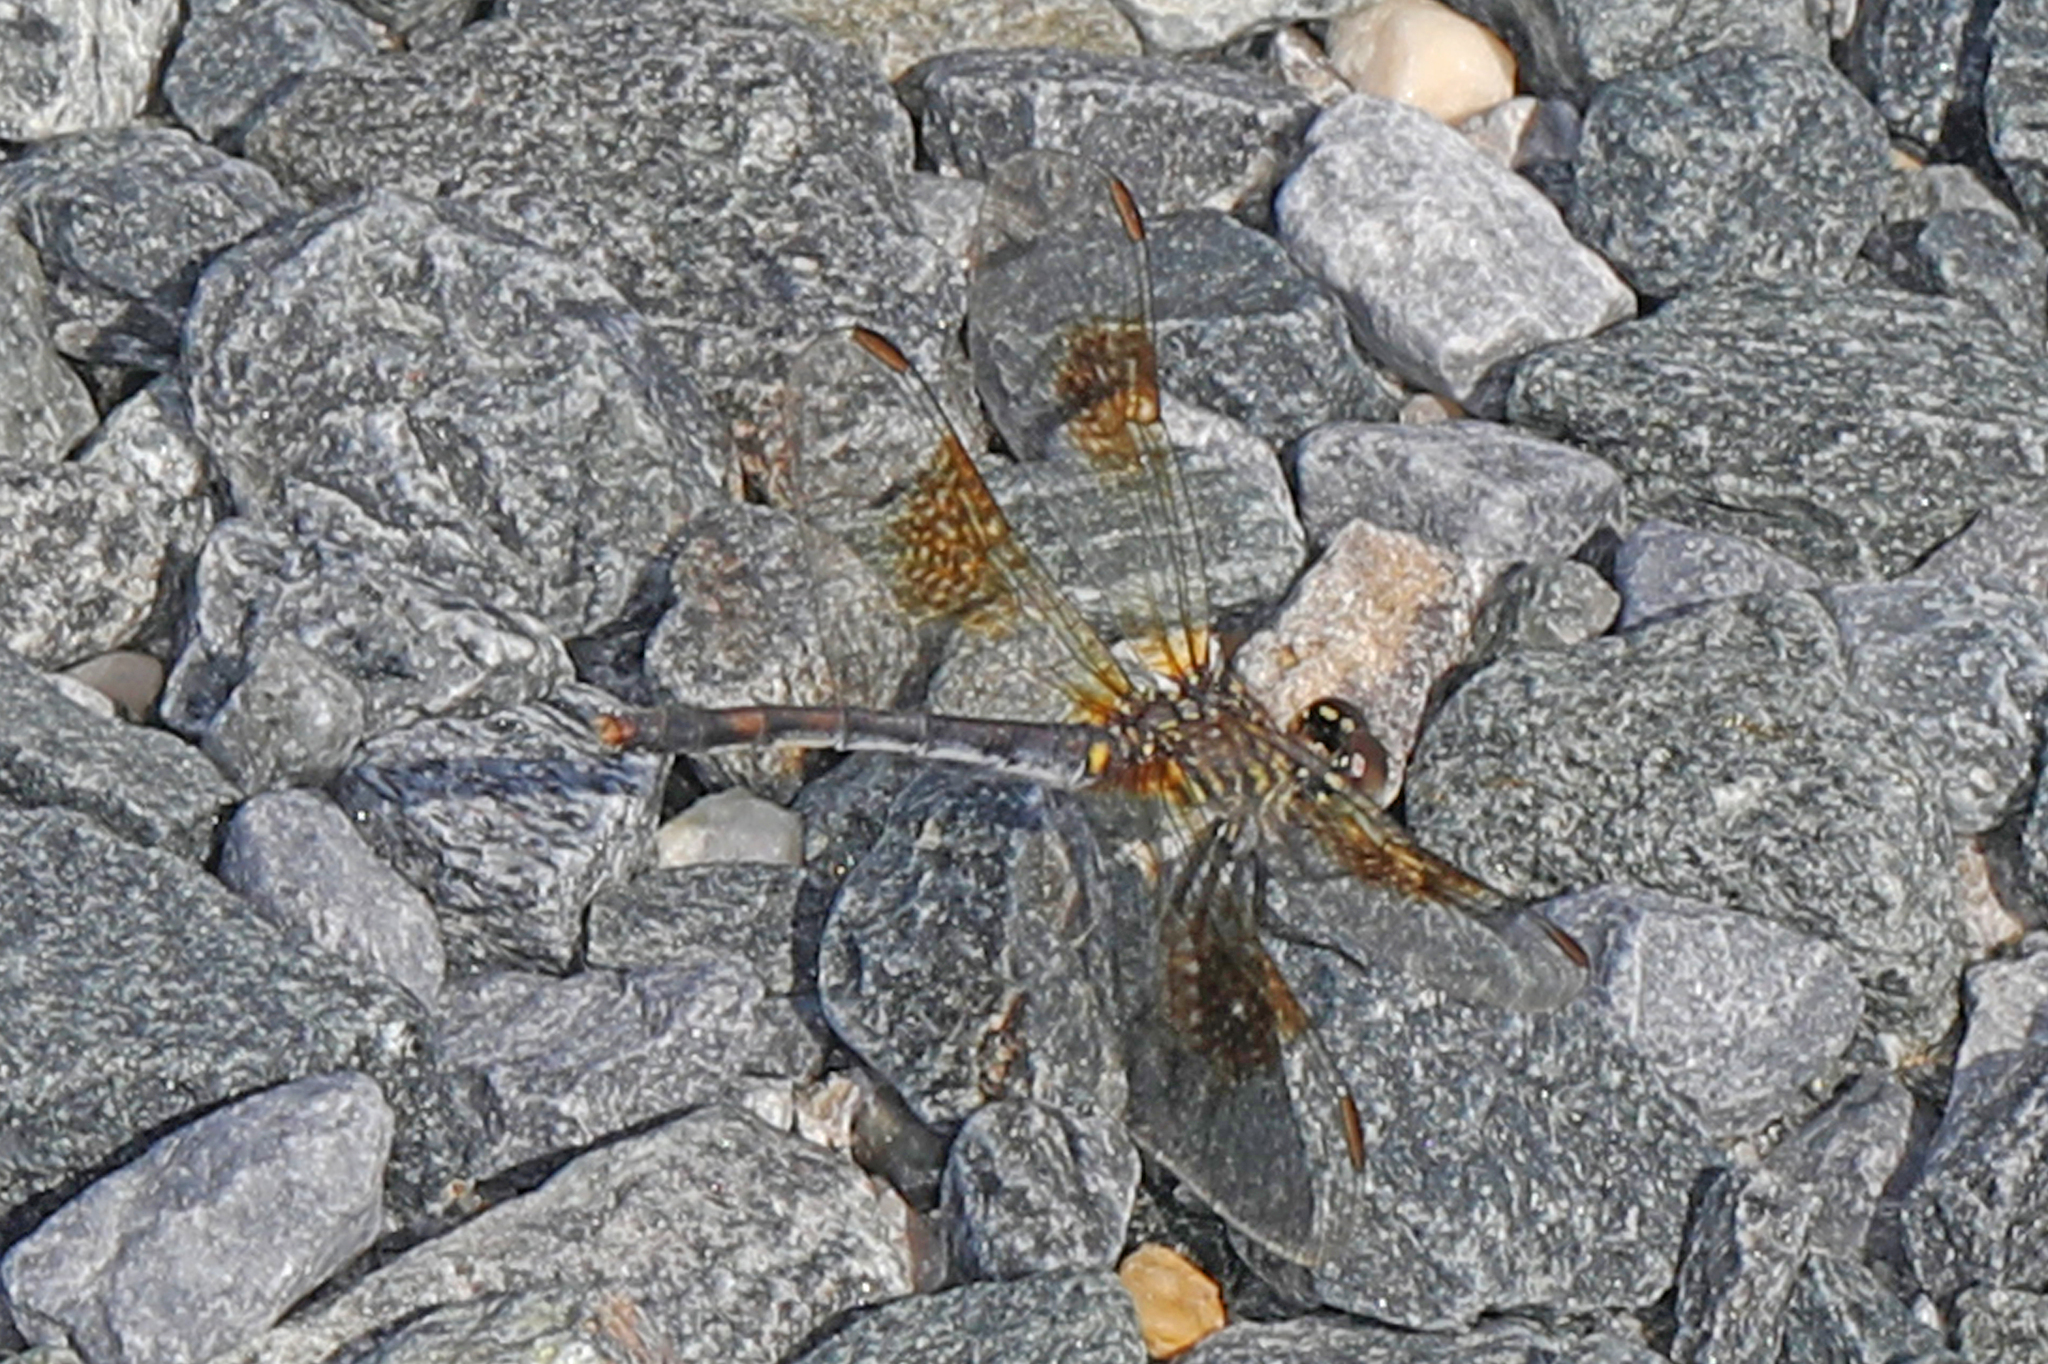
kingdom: Animalia
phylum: Arthropoda
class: Insecta
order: Odonata
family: Libellulidae
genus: Erythrodiplax
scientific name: Erythrodiplax berenice
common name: Seaside dragonlet
